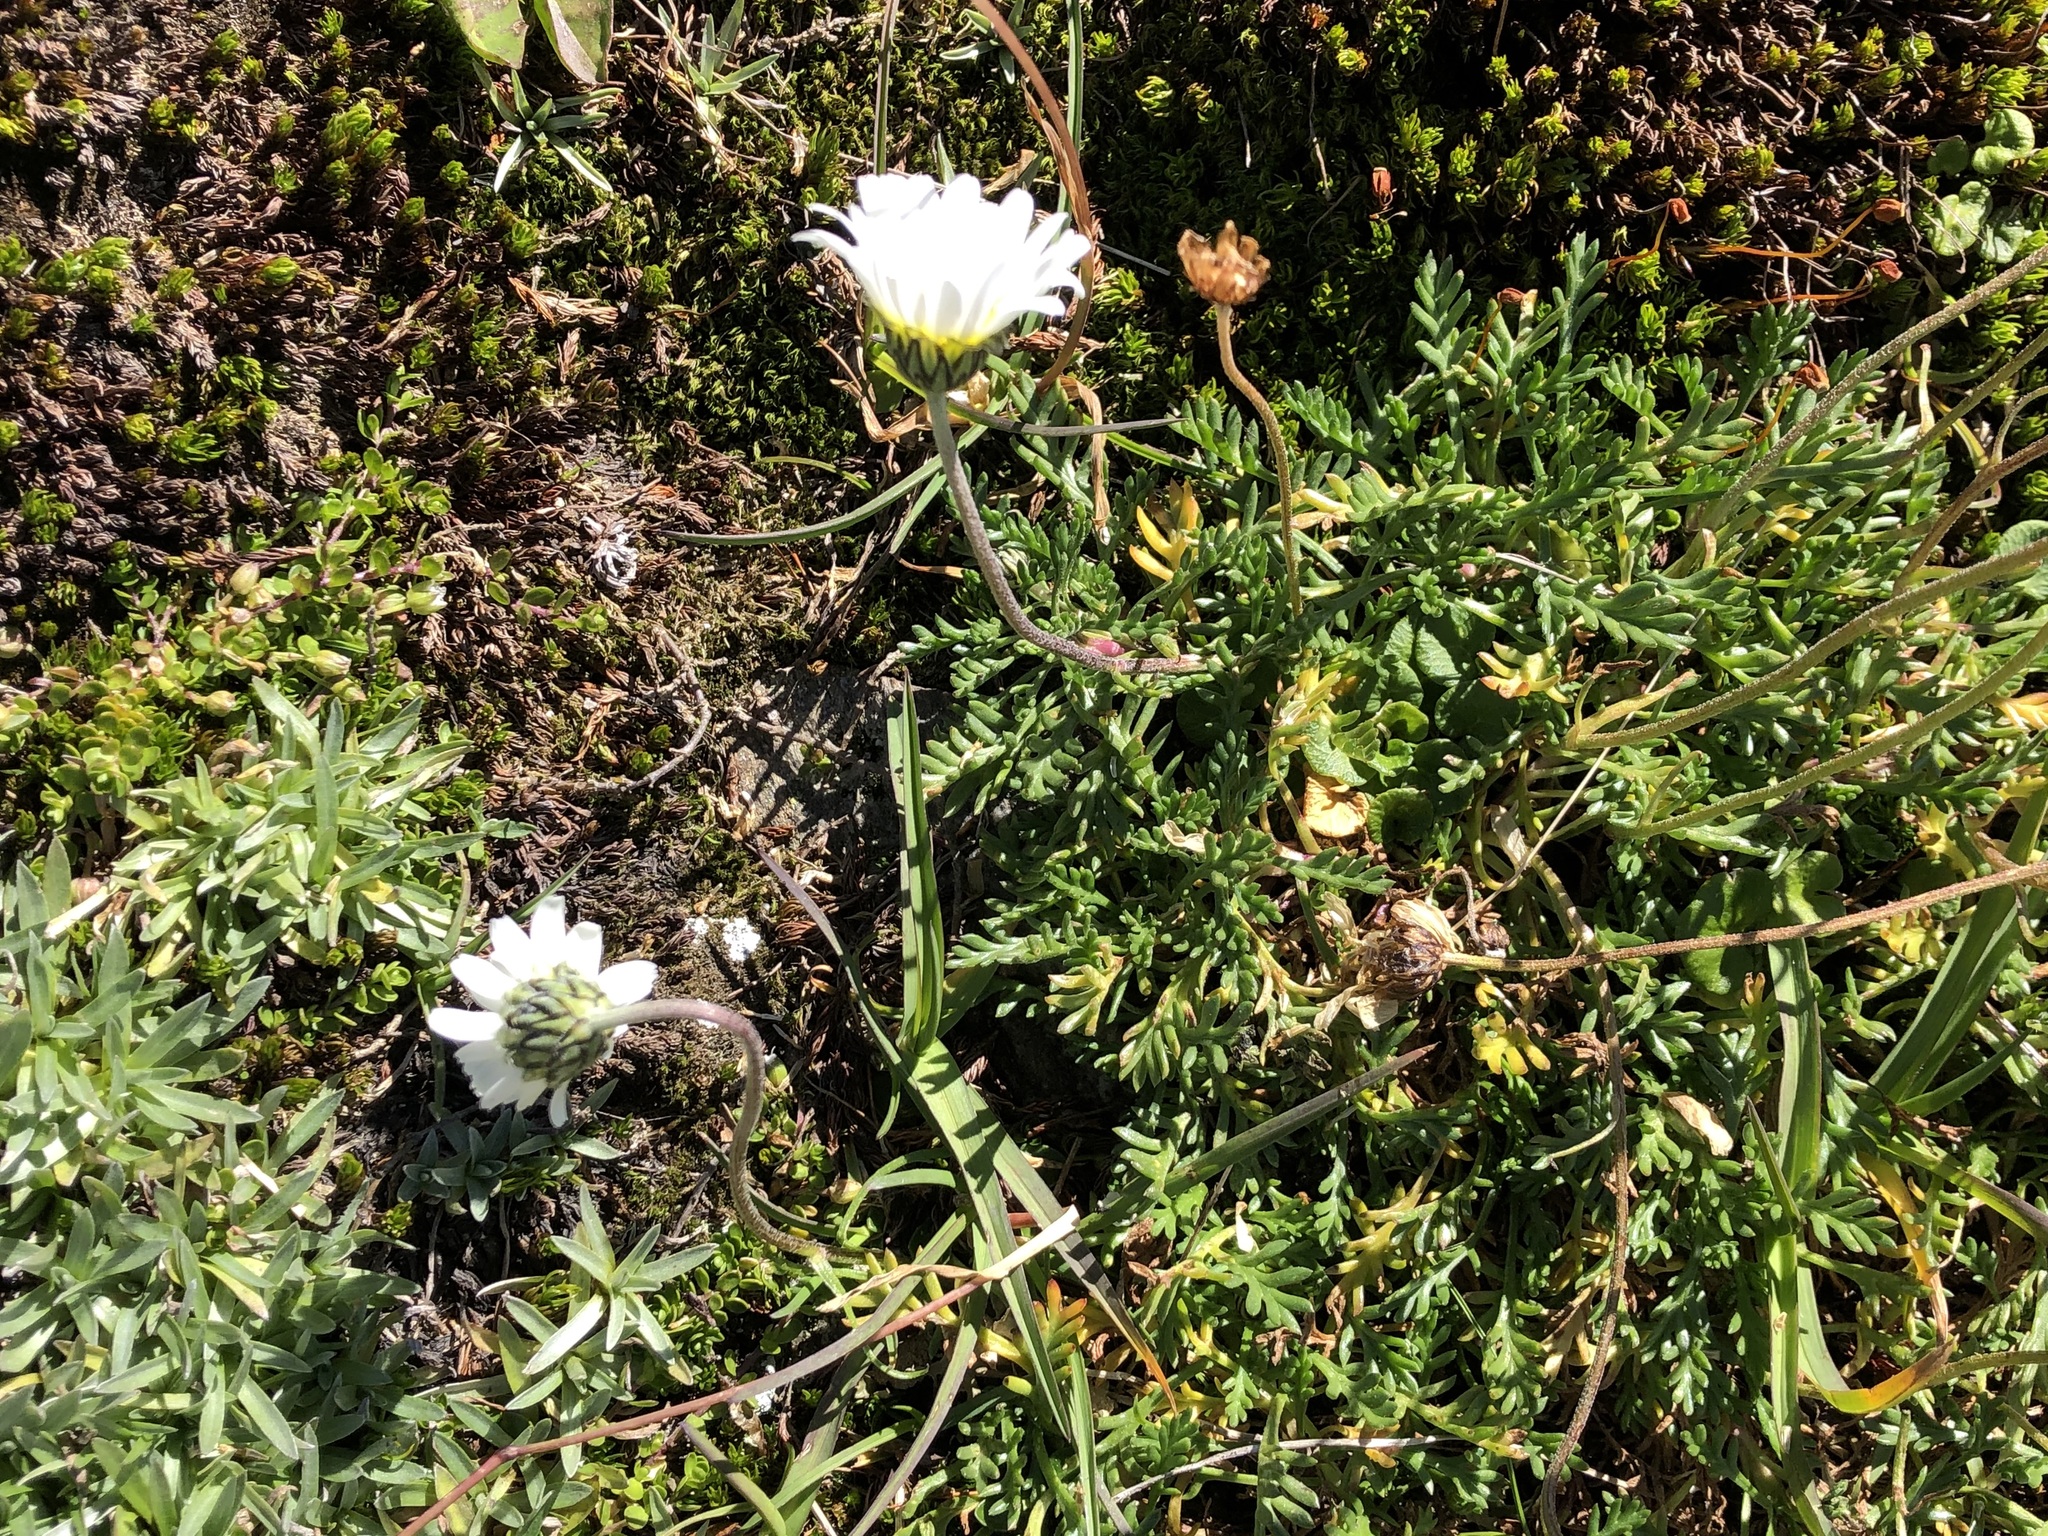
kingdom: Plantae
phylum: Tracheophyta
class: Magnoliopsida
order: Asterales
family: Asteraceae
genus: Leucanthemopsis
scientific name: Leucanthemopsis alpina
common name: Alpine moon daisy
